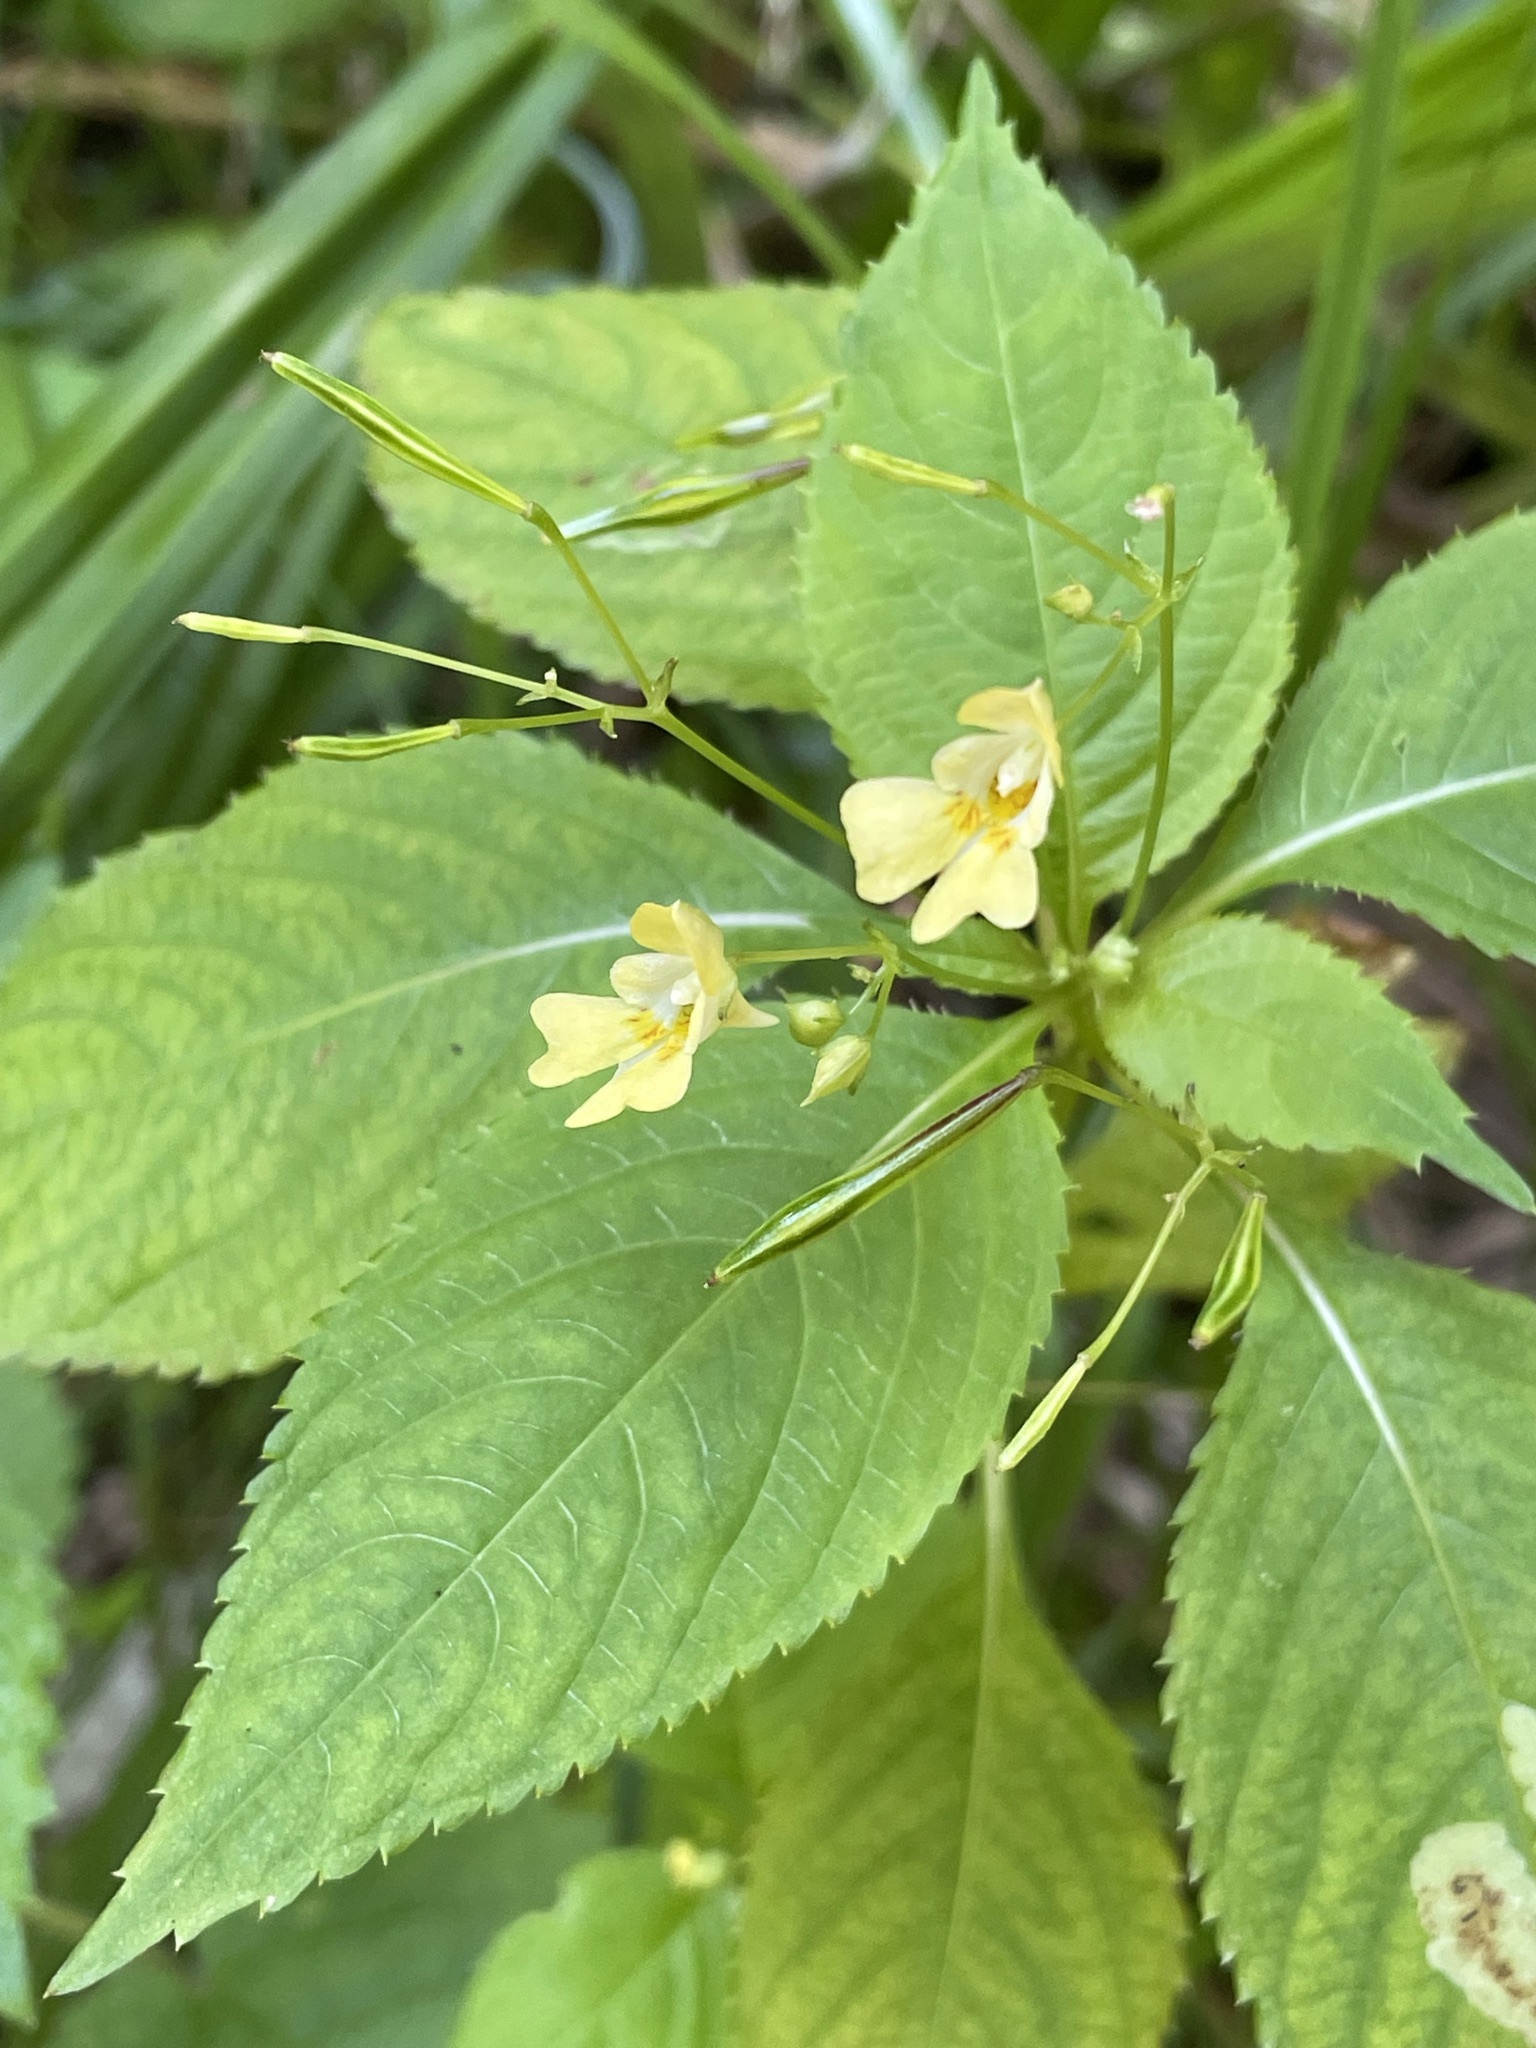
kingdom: Plantae
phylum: Tracheophyta
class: Magnoliopsida
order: Ericales
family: Balsaminaceae
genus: Impatiens
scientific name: Impatiens parviflora
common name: Small balsam
